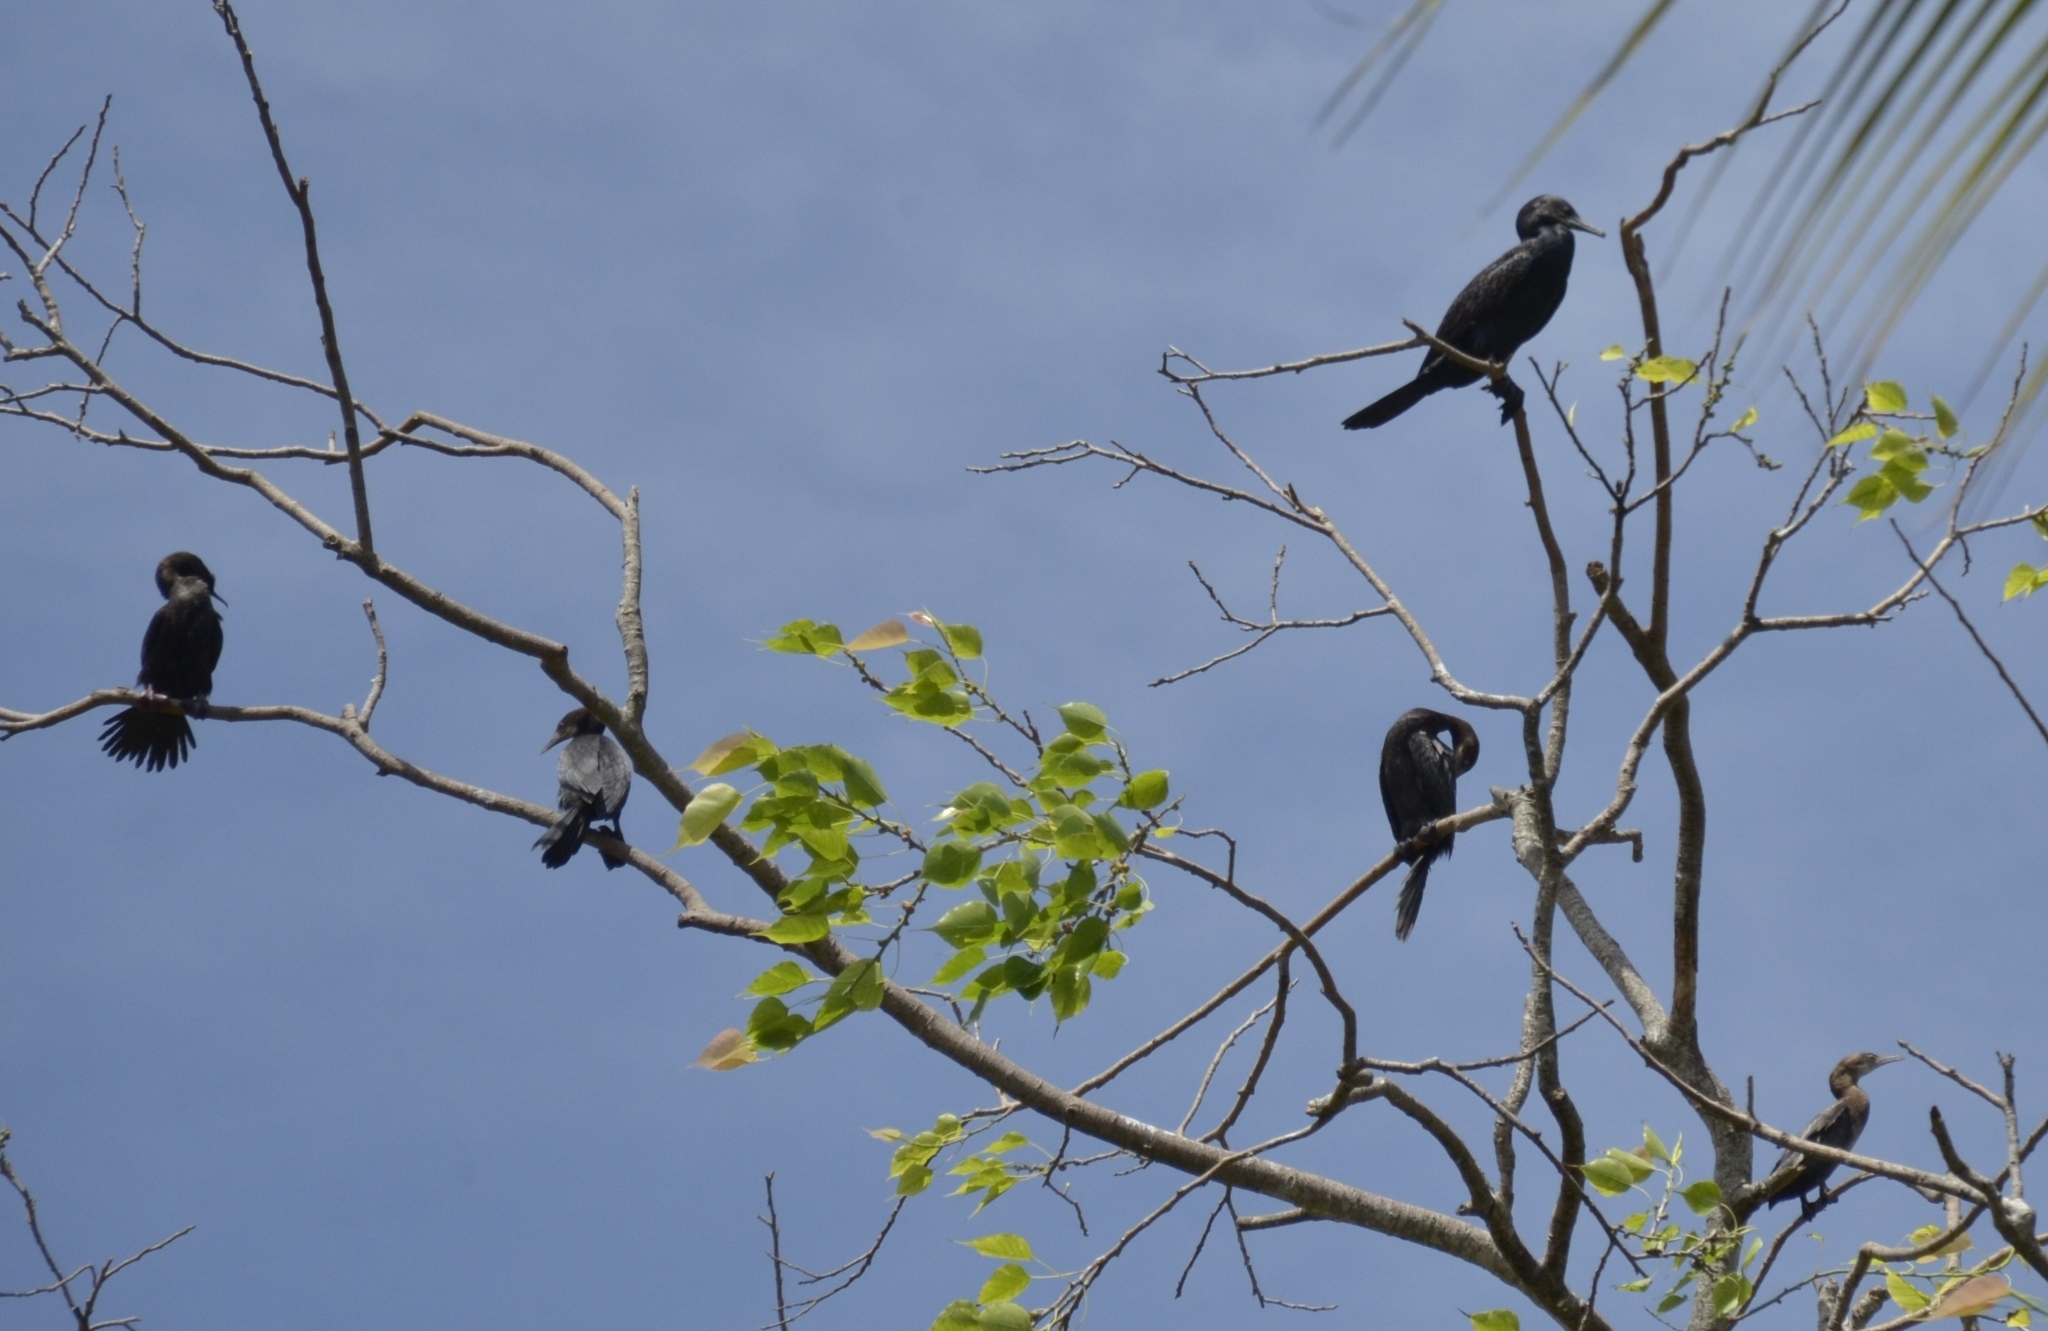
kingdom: Animalia
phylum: Chordata
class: Aves
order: Suliformes
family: Phalacrocoracidae
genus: Phalacrocorax
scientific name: Phalacrocorax fuscicollis
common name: Indian cormorant
